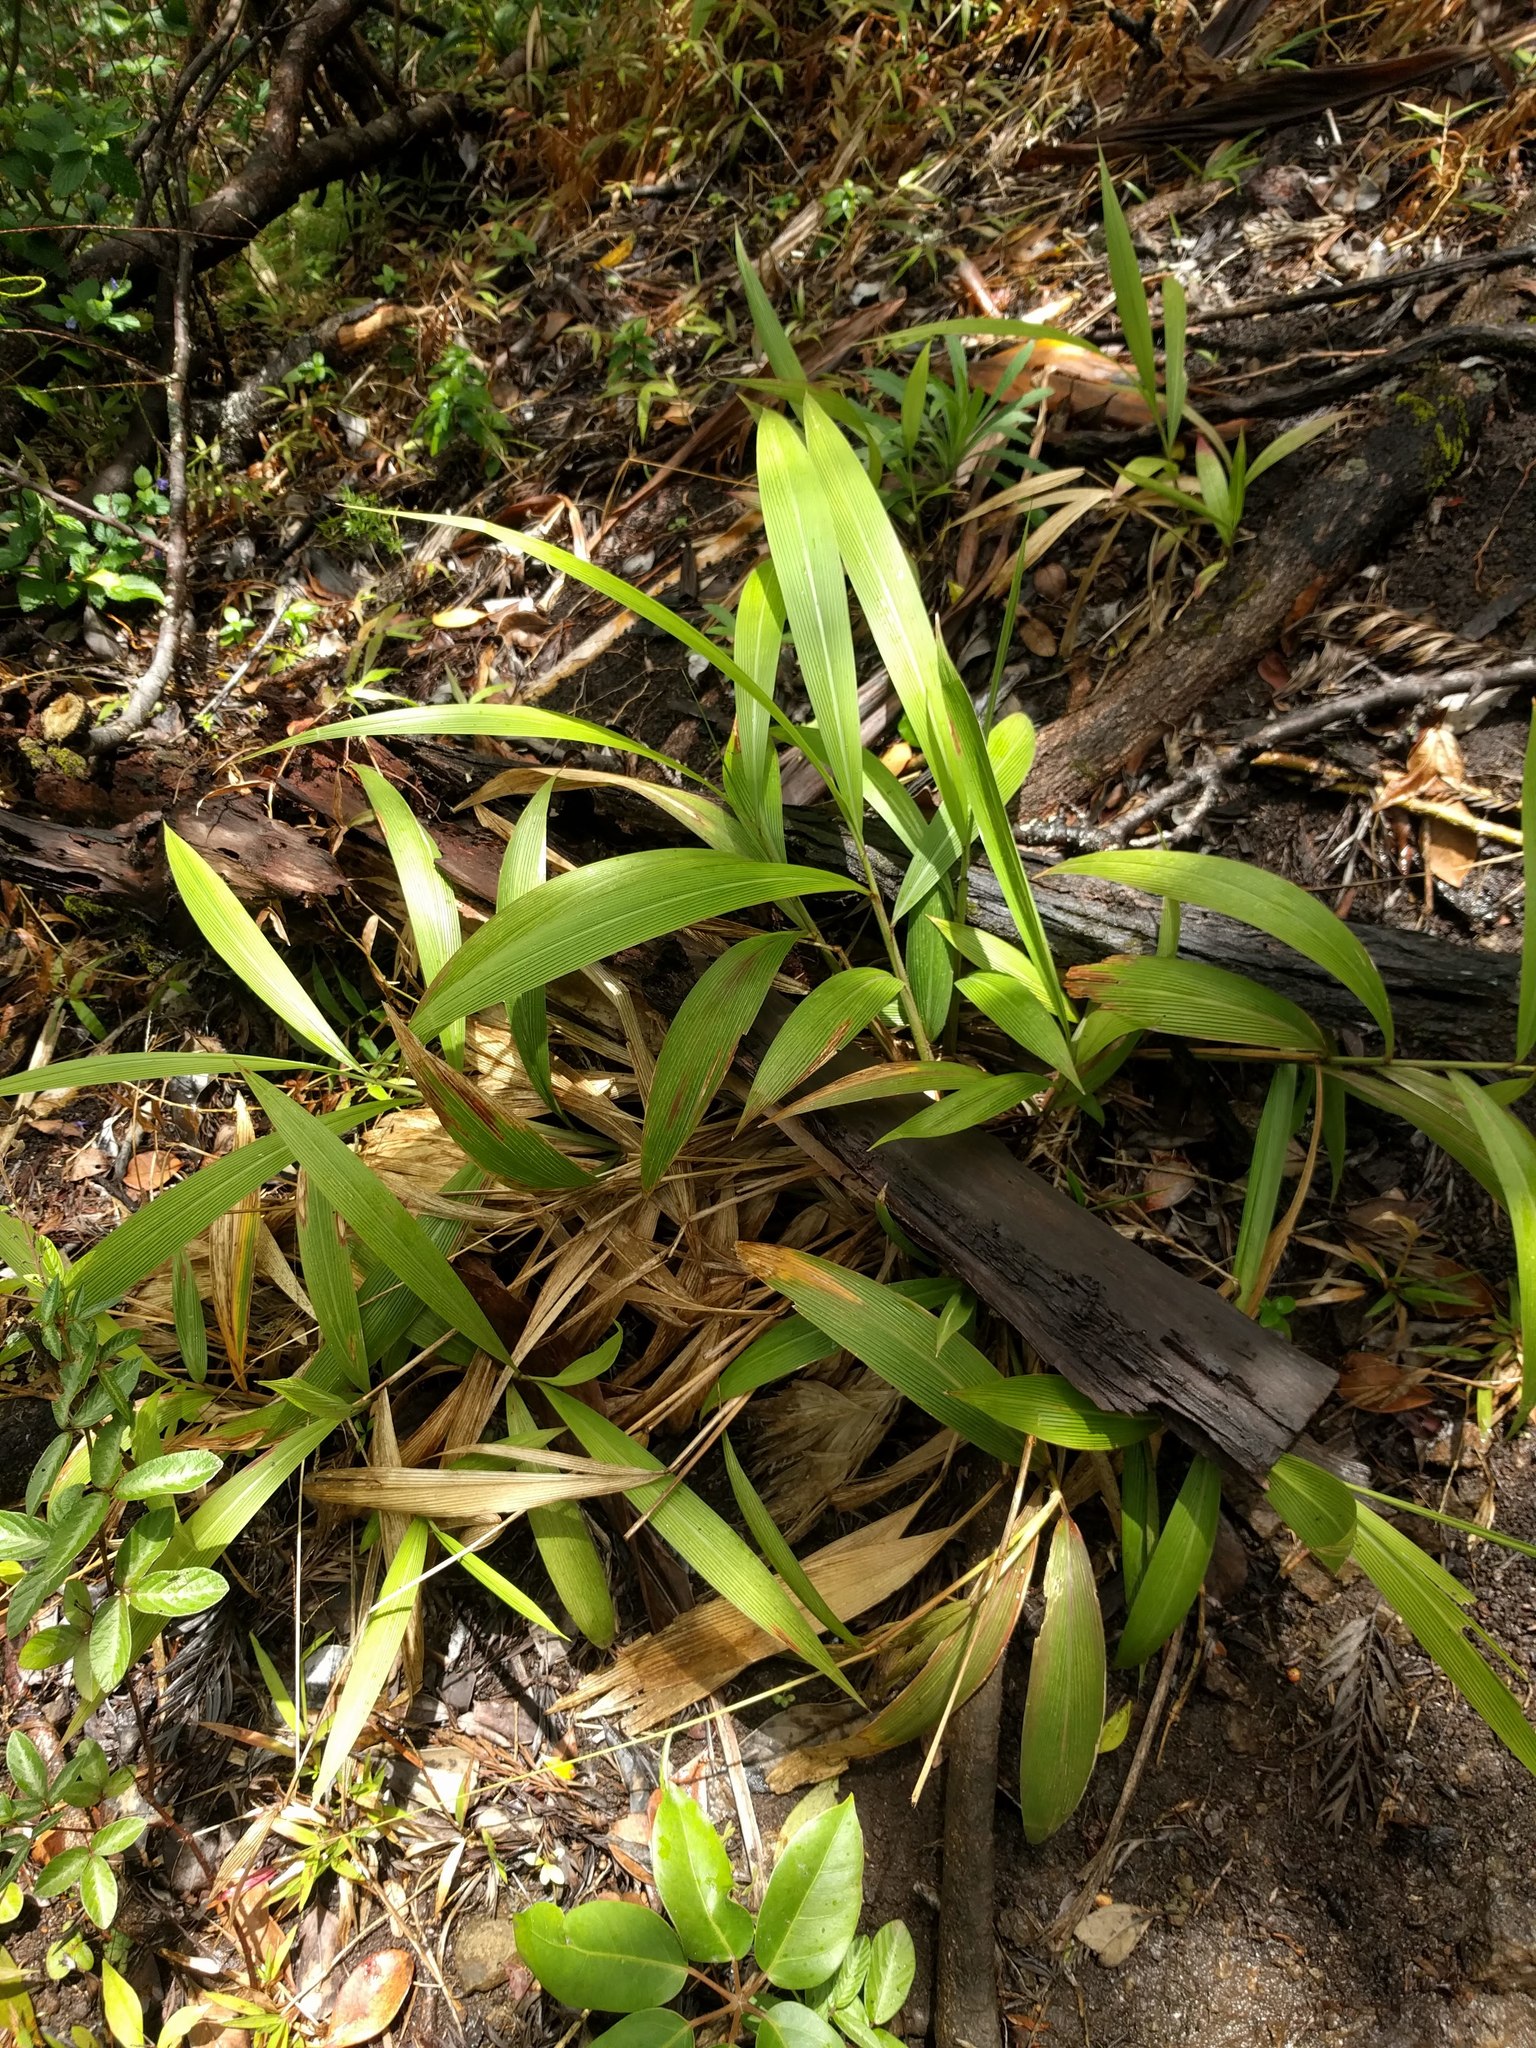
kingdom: Plantae
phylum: Tracheophyta
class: Liliopsida
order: Poales
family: Poaceae
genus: Setaria
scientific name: Setaria palmifolia
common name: Broadleaved bristlegrass
